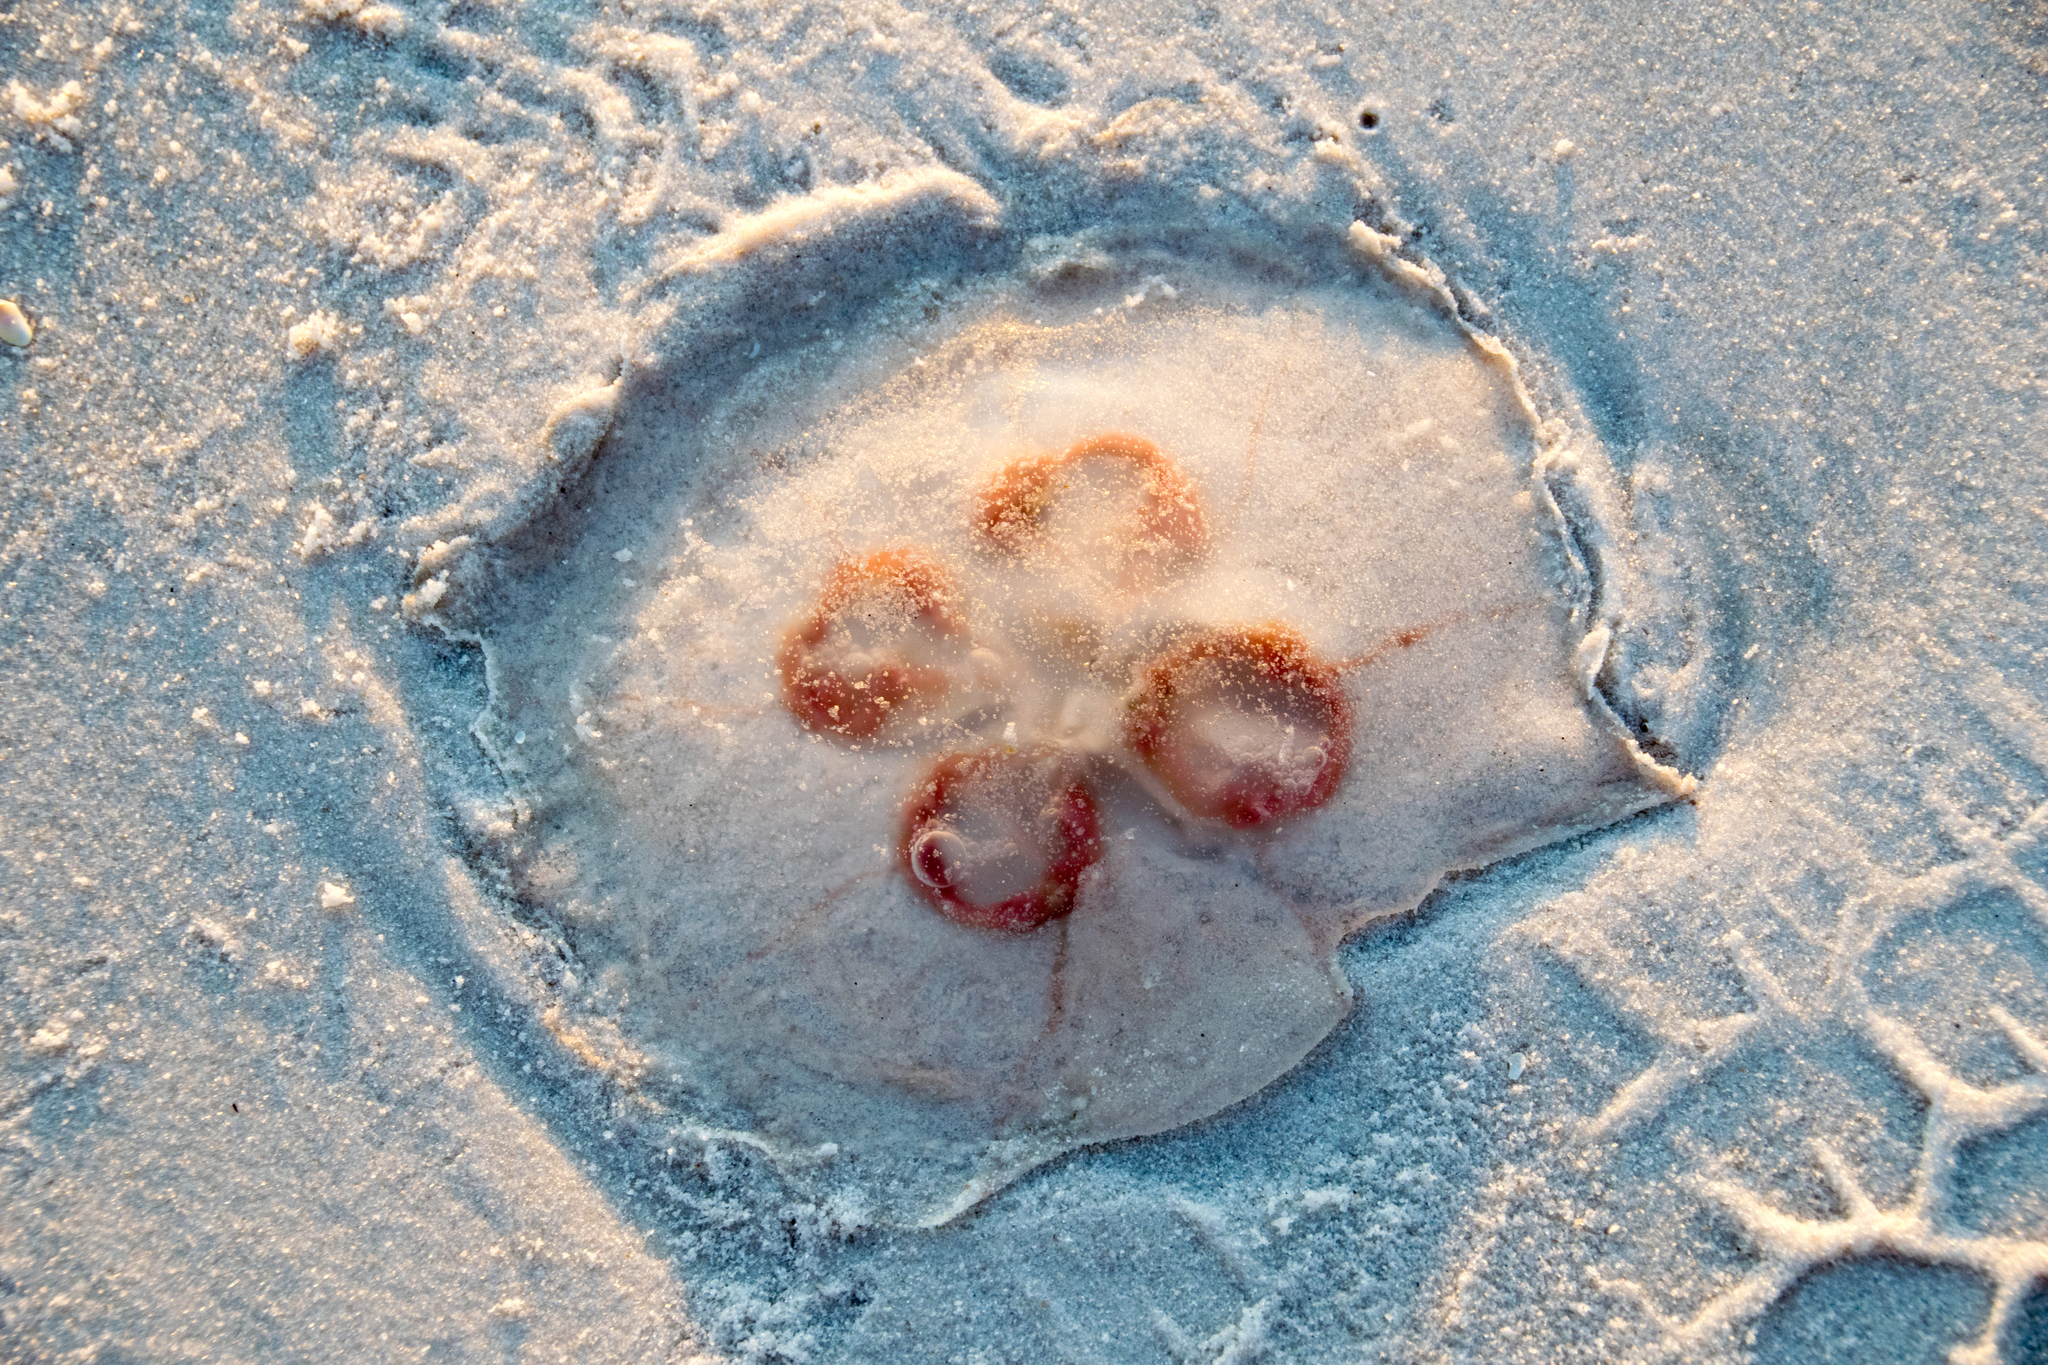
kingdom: Animalia
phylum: Cnidaria
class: Scyphozoa
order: Semaeostomeae
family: Ulmaridae
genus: Aurelia
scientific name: Aurelia marginalis
